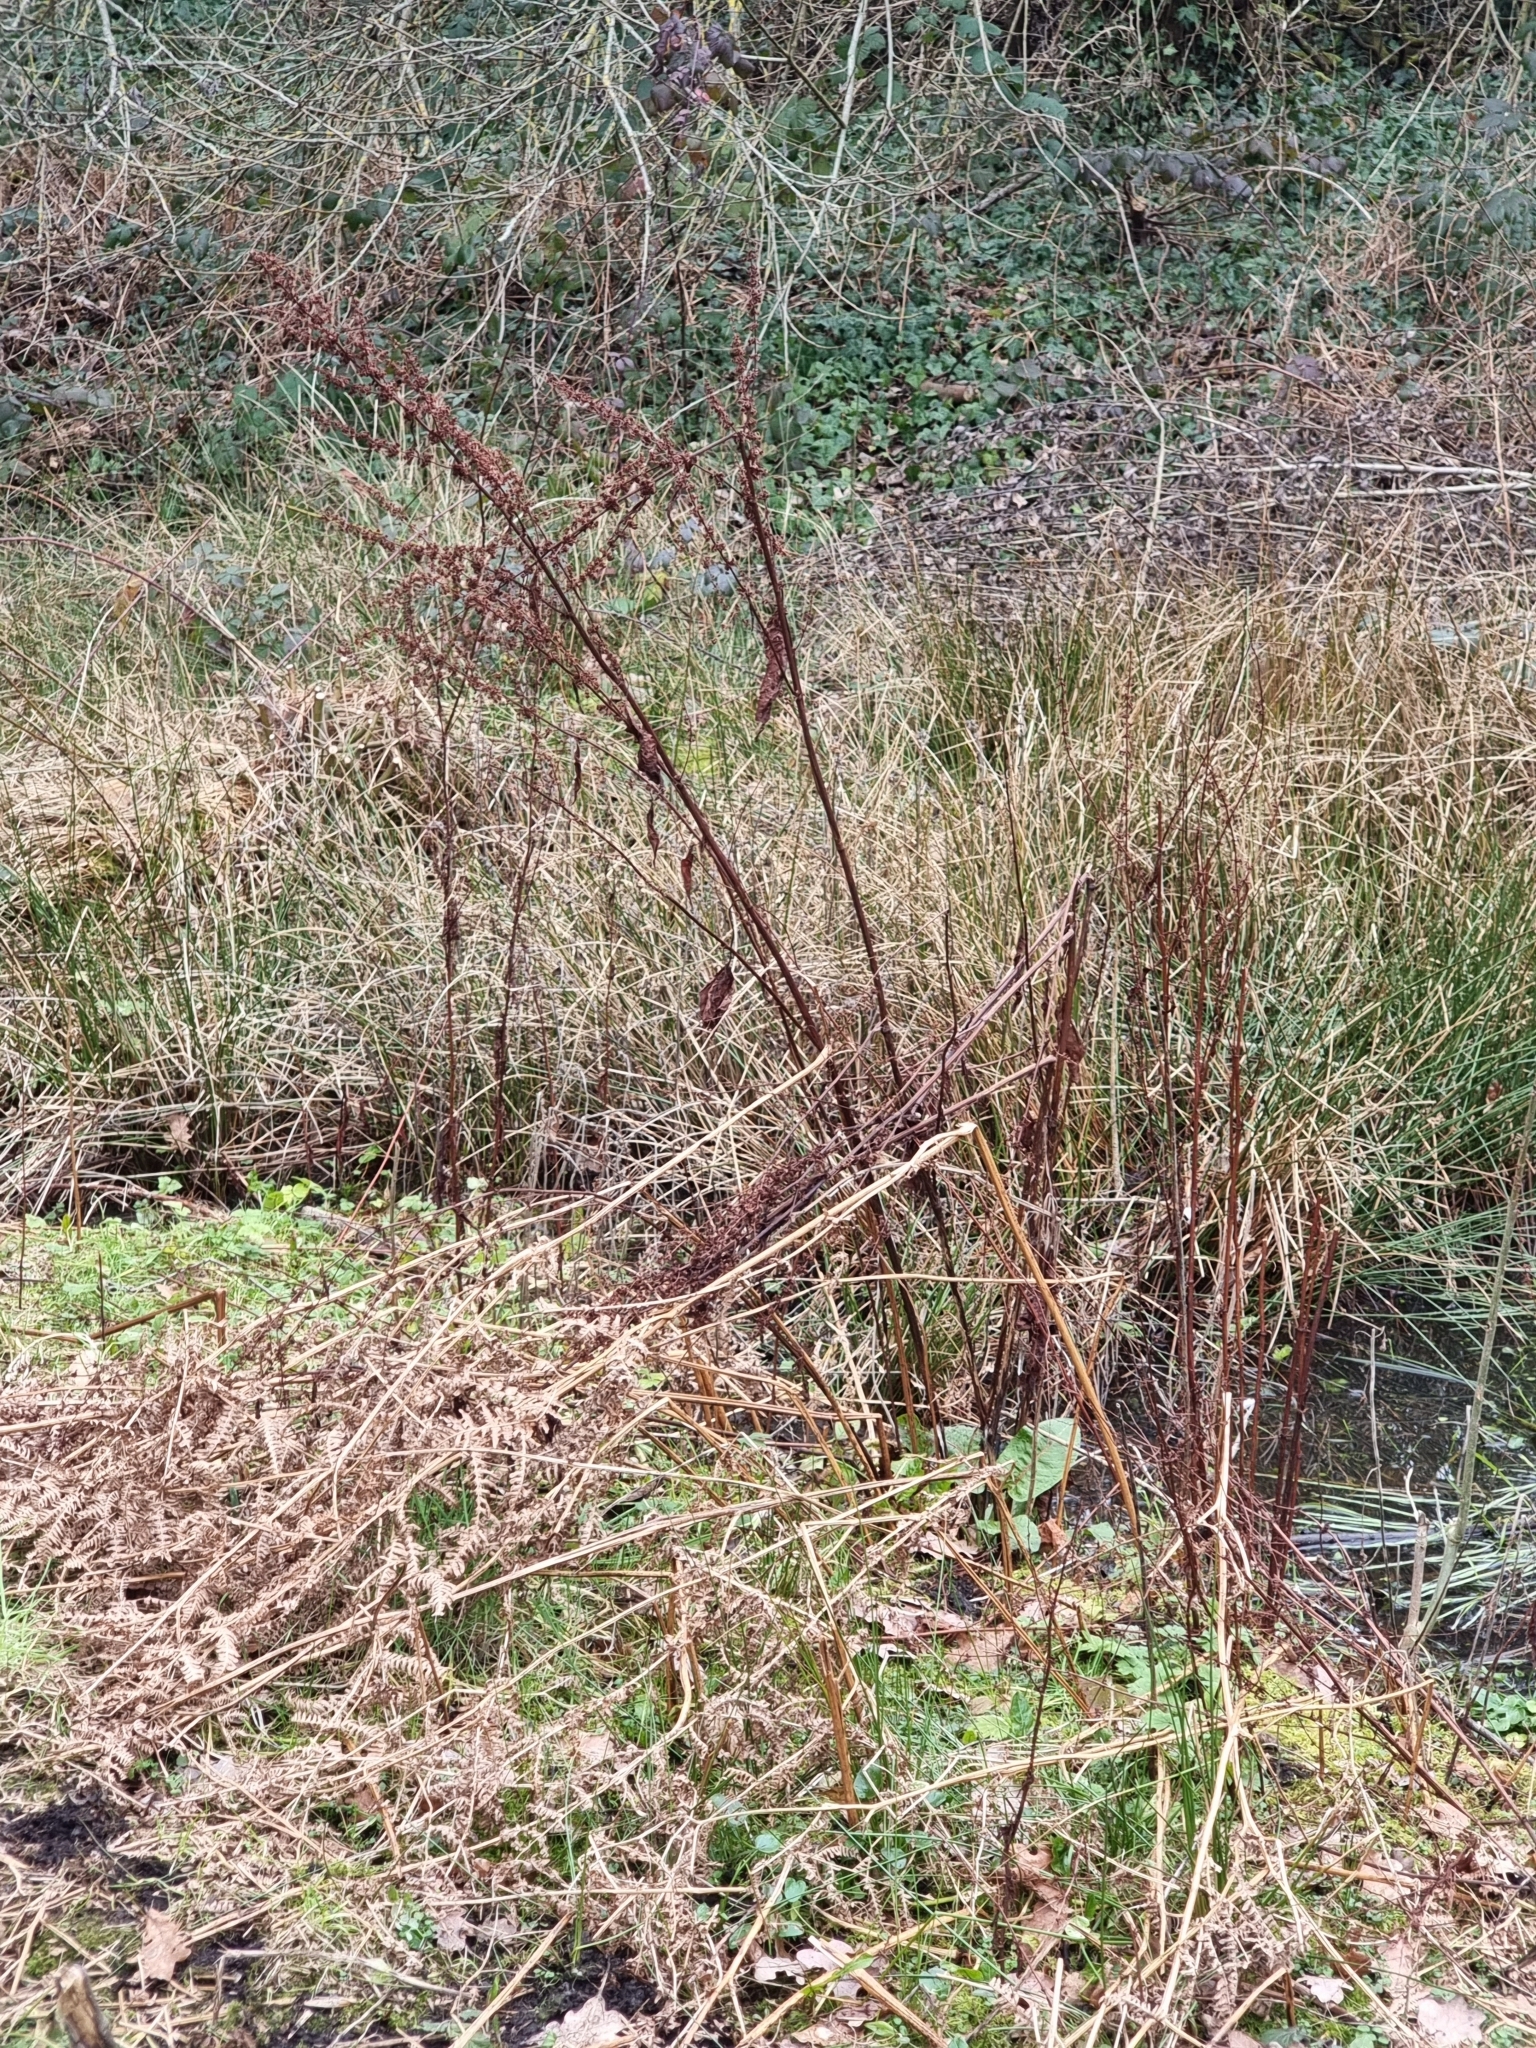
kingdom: Plantae
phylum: Tracheophyta
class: Magnoliopsida
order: Caryophyllales
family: Polygonaceae
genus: Rumex
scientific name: Rumex obtusifolius
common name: Bitter dock
